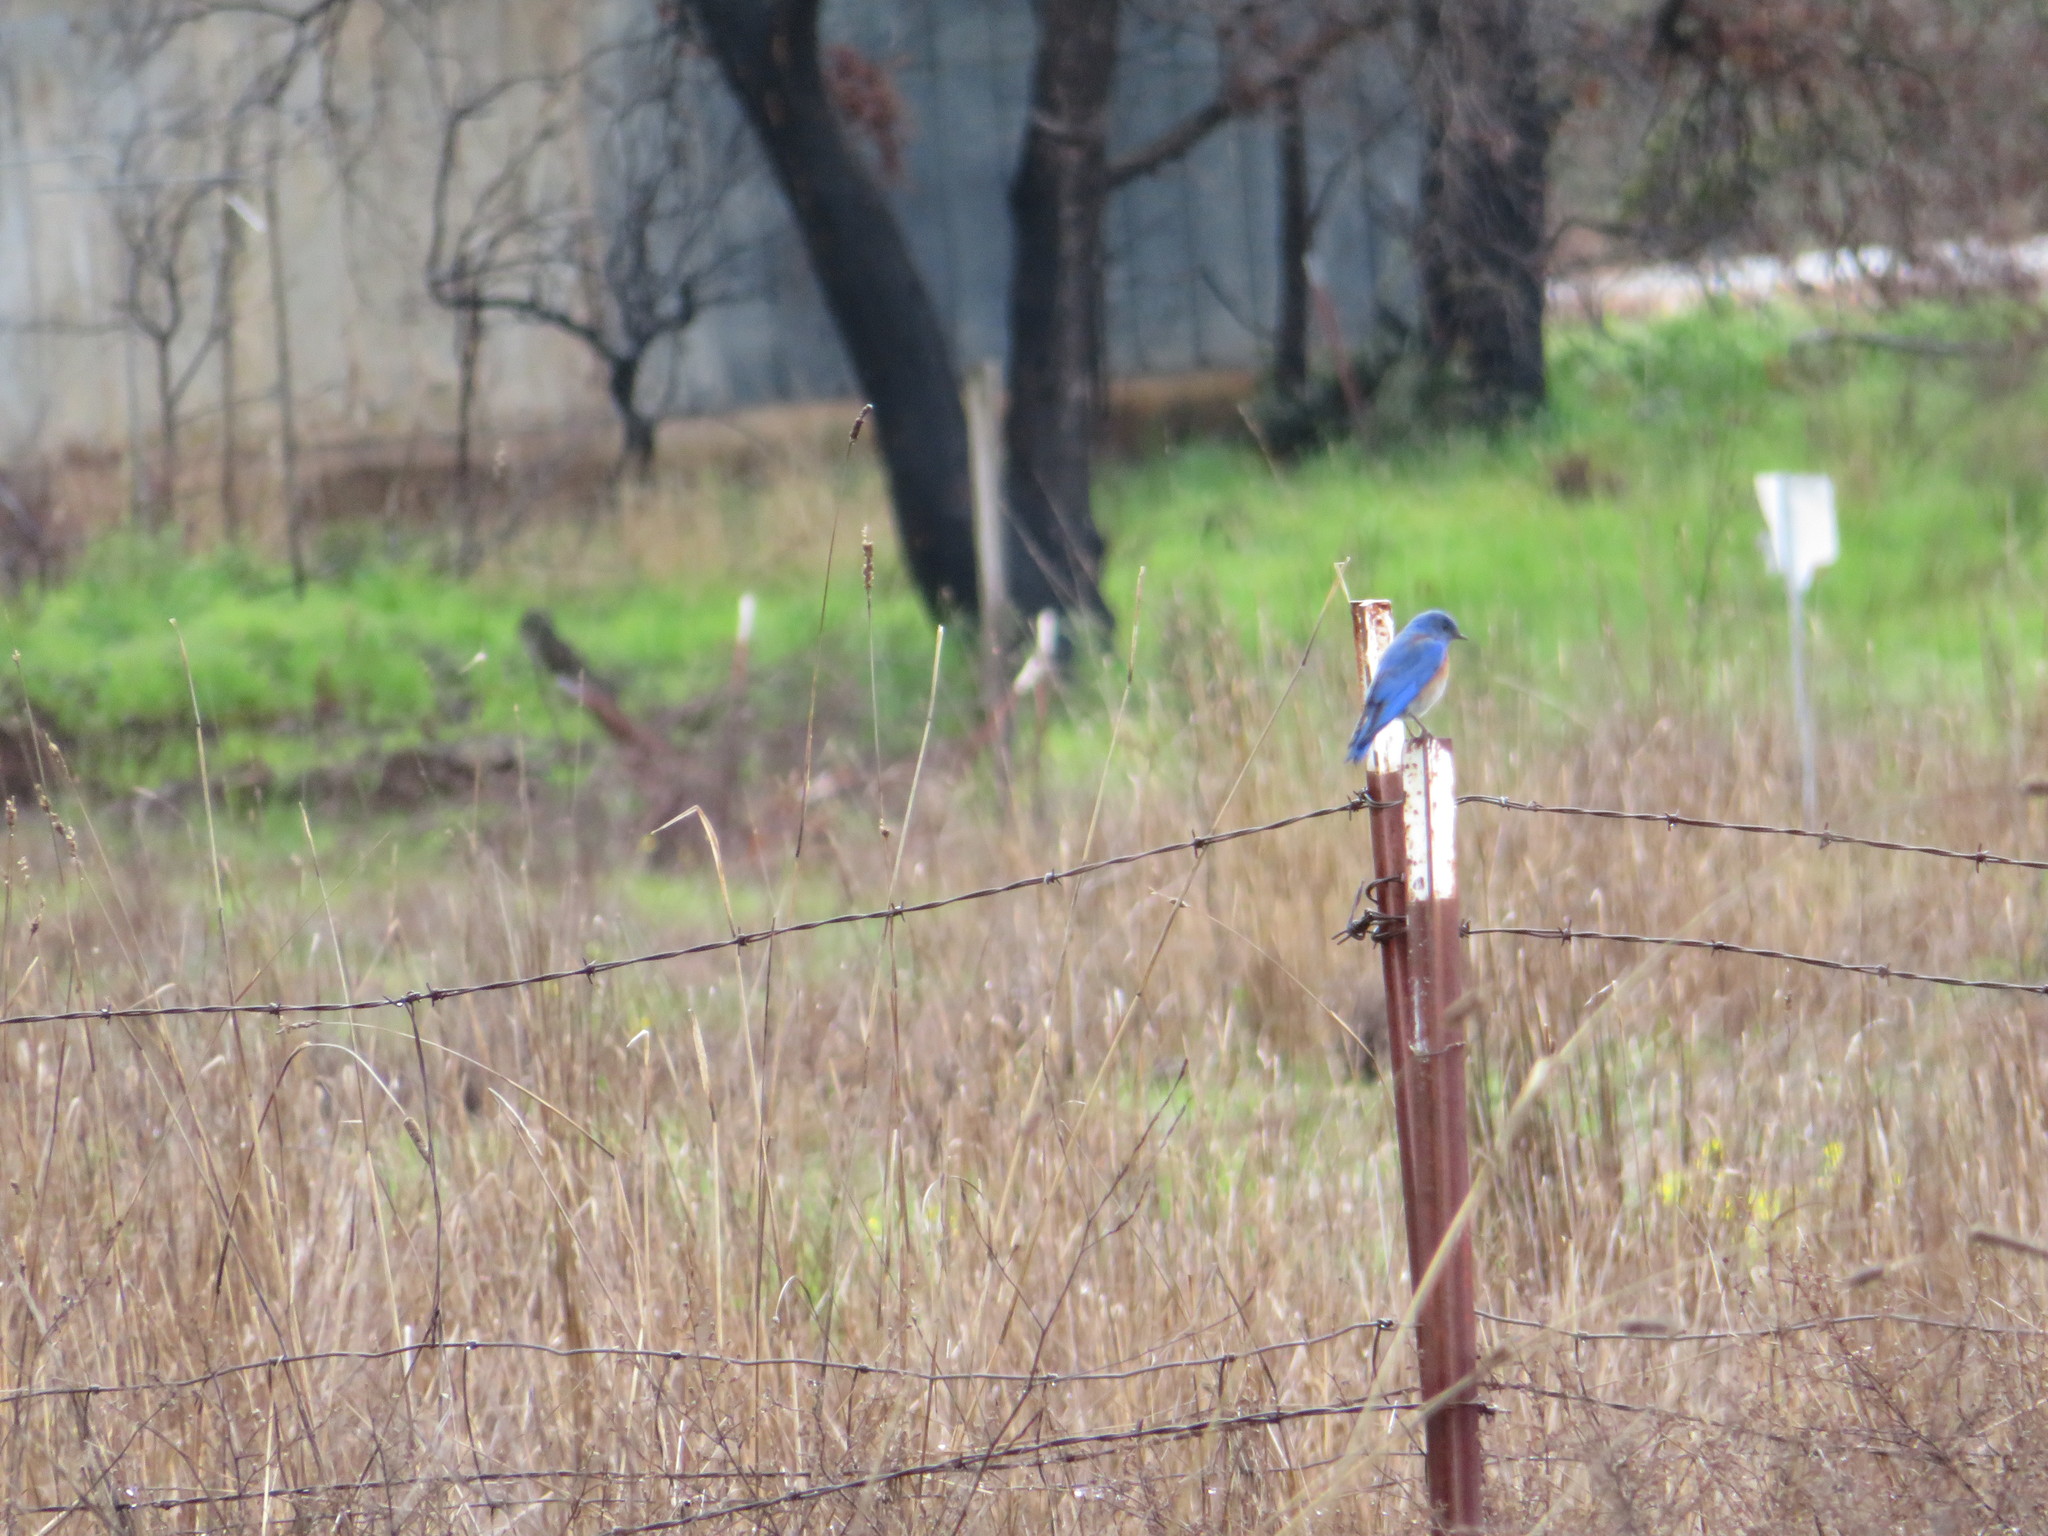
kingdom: Animalia
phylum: Chordata
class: Aves
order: Passeriformes
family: Turdidae
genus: Sialia
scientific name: Sialia mexicana
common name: Western bluebird
